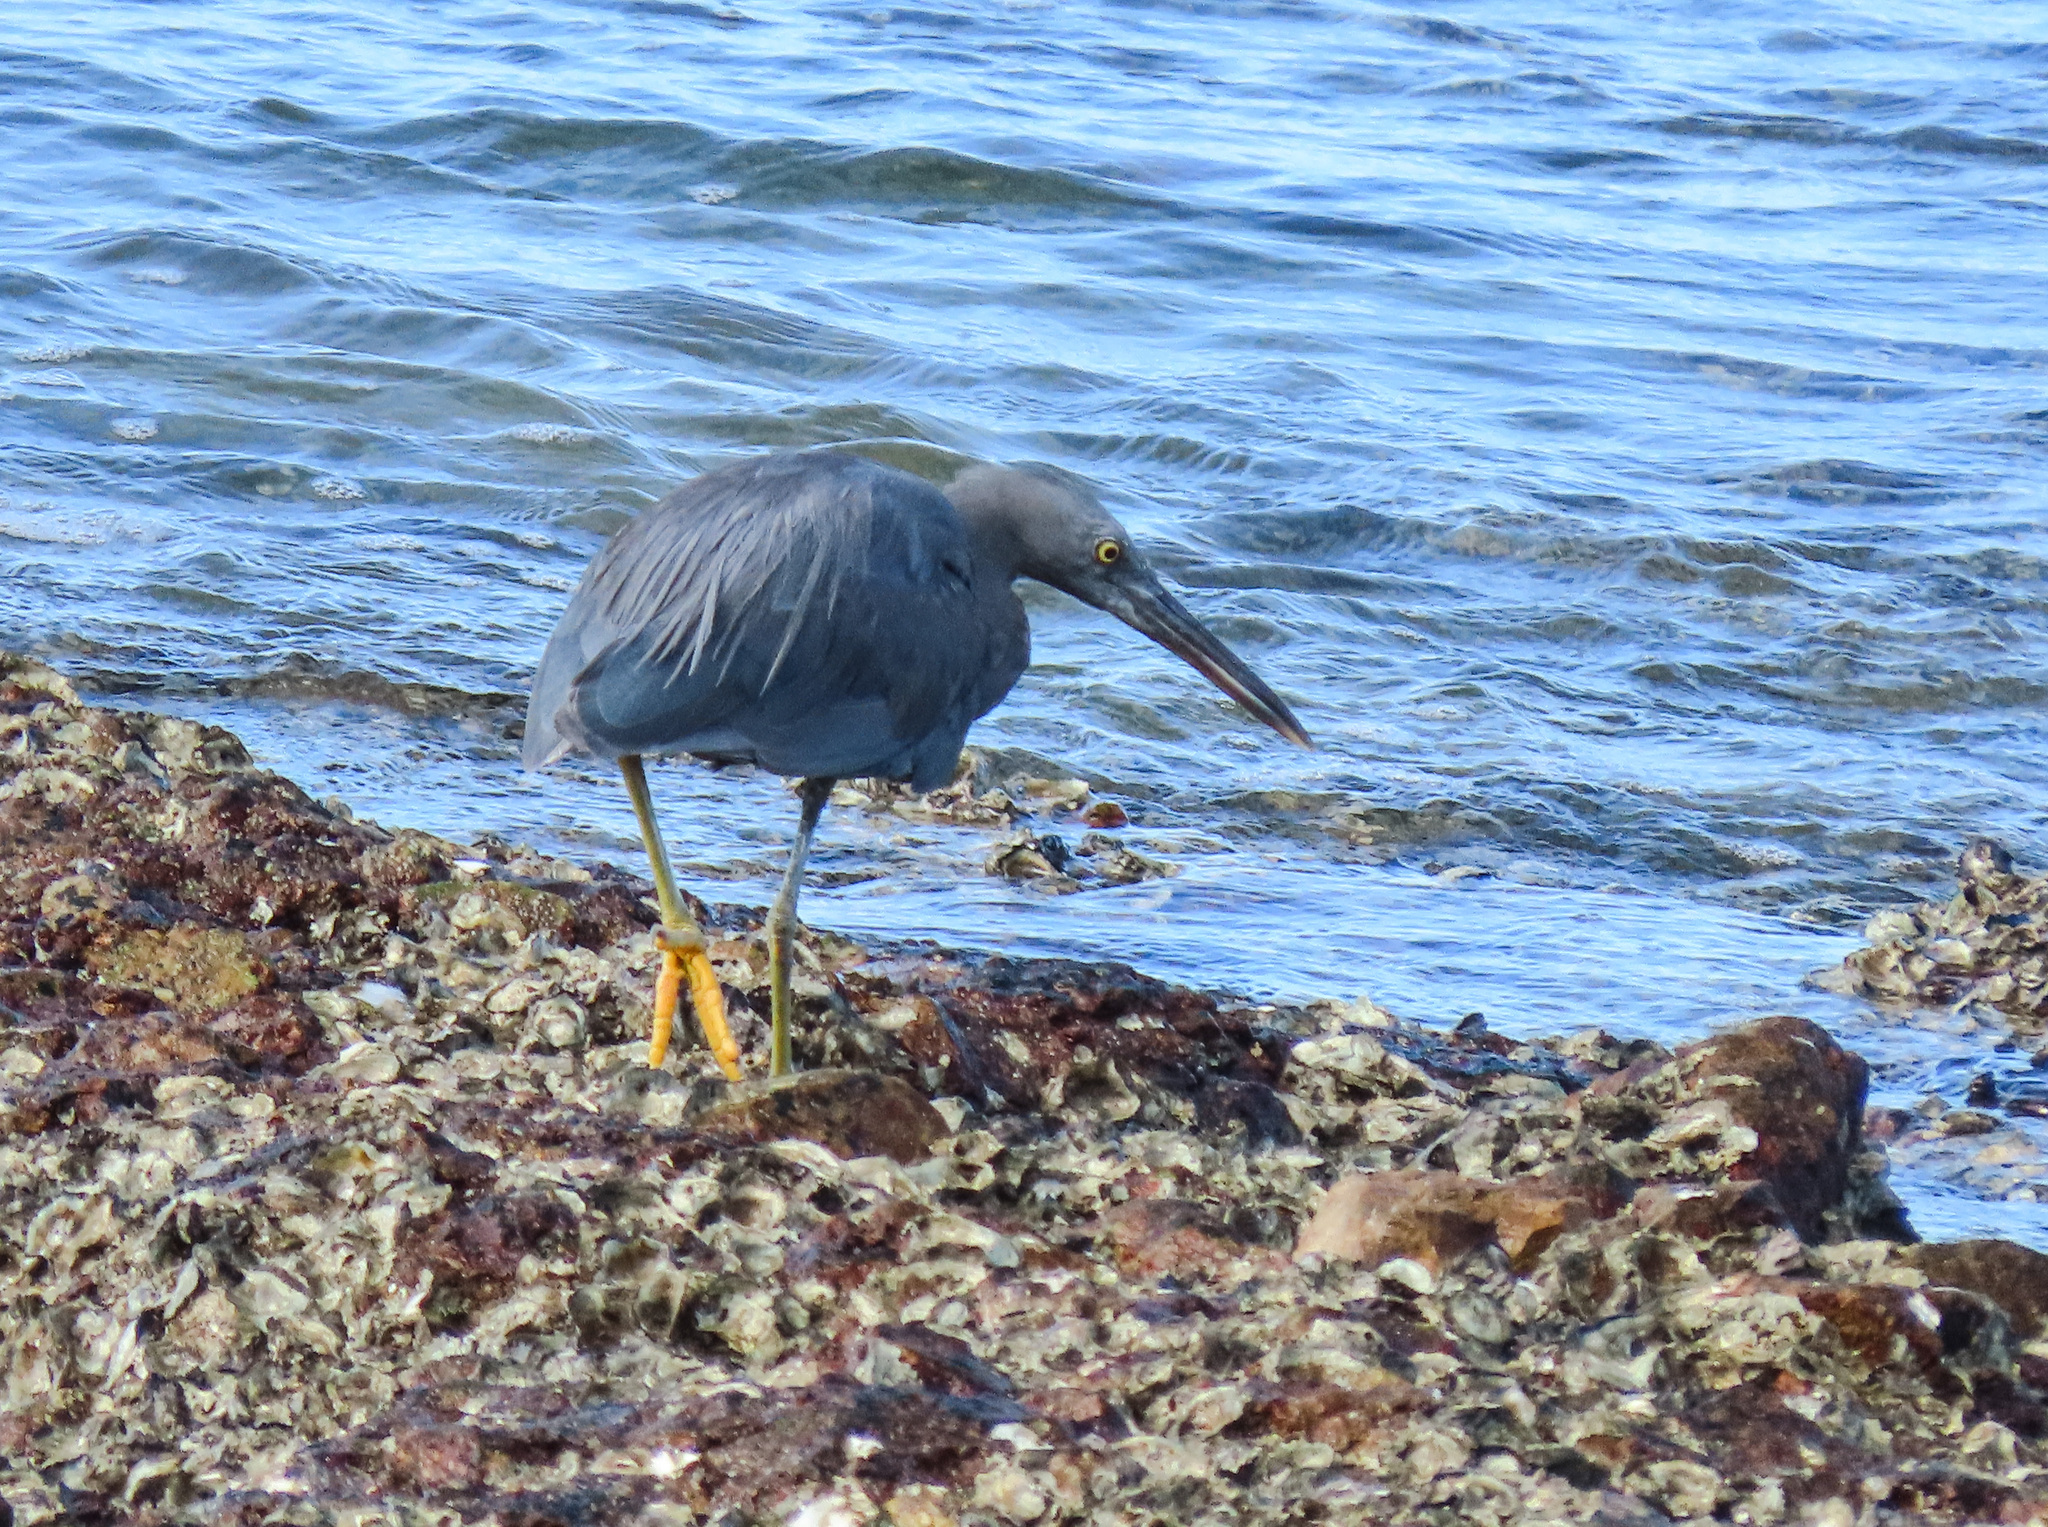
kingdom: Animalia
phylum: Chordata
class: Aves
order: Pelecaniformes
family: Ardeidae
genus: Egretta
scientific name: Egretta sacra
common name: Pacific reef heron
